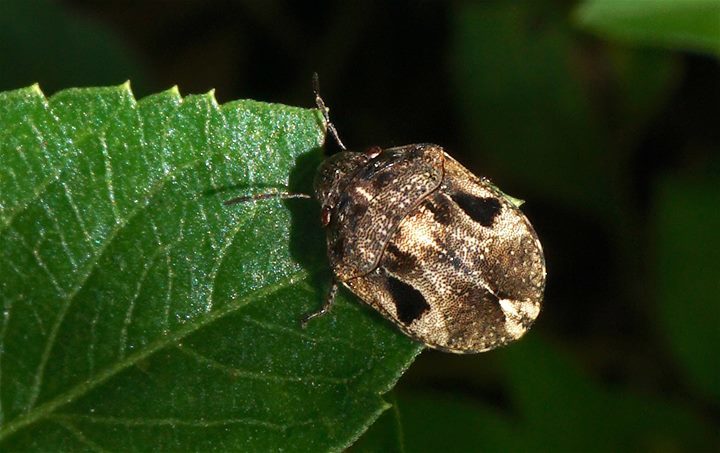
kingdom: Animalia
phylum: Arthropoda
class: Insecta
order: Hemiptera
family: Scutelleridae
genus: Homaemus
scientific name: Homaemus proteus
